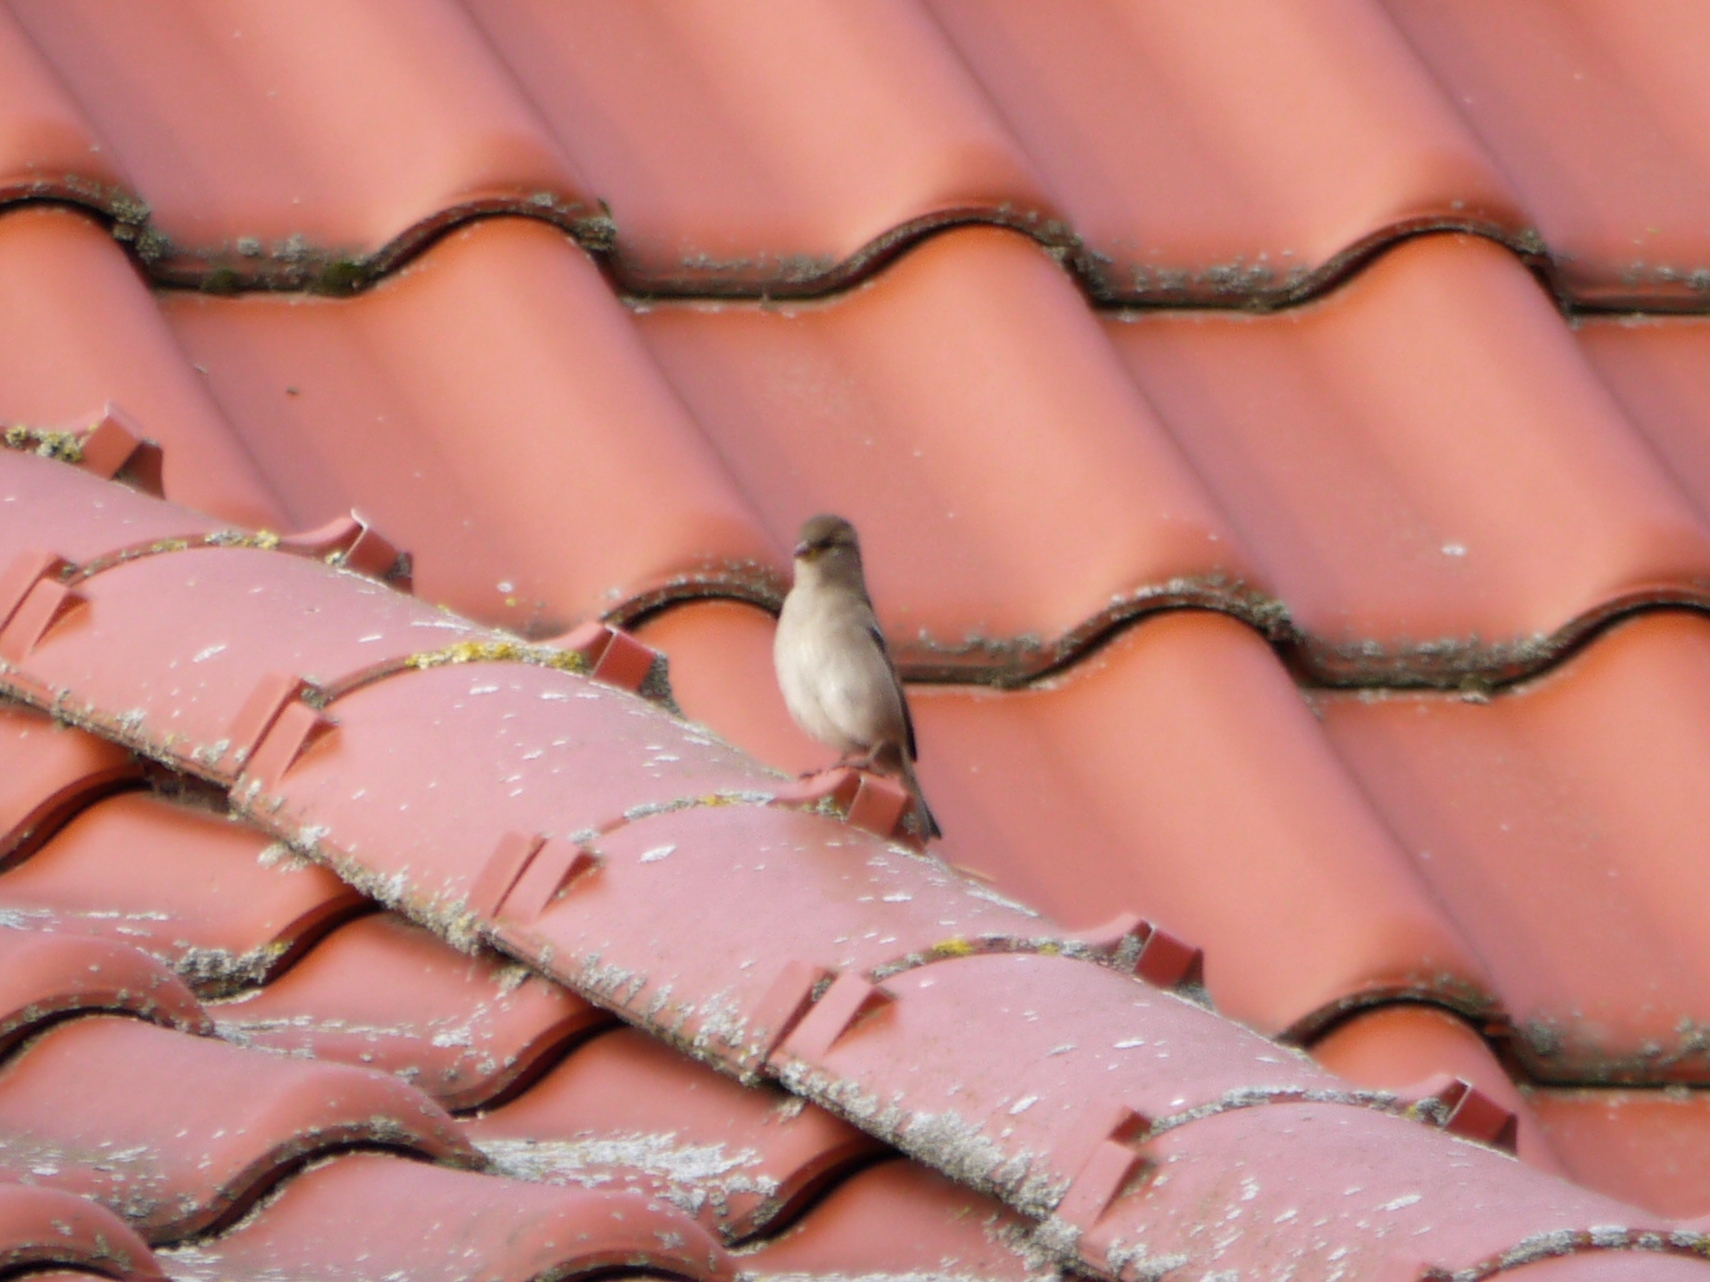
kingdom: Animalia
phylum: Chordata
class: Aves
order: Passeriformes
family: Passeridae
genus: Passer
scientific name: Passer domesticus
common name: House sparrow
